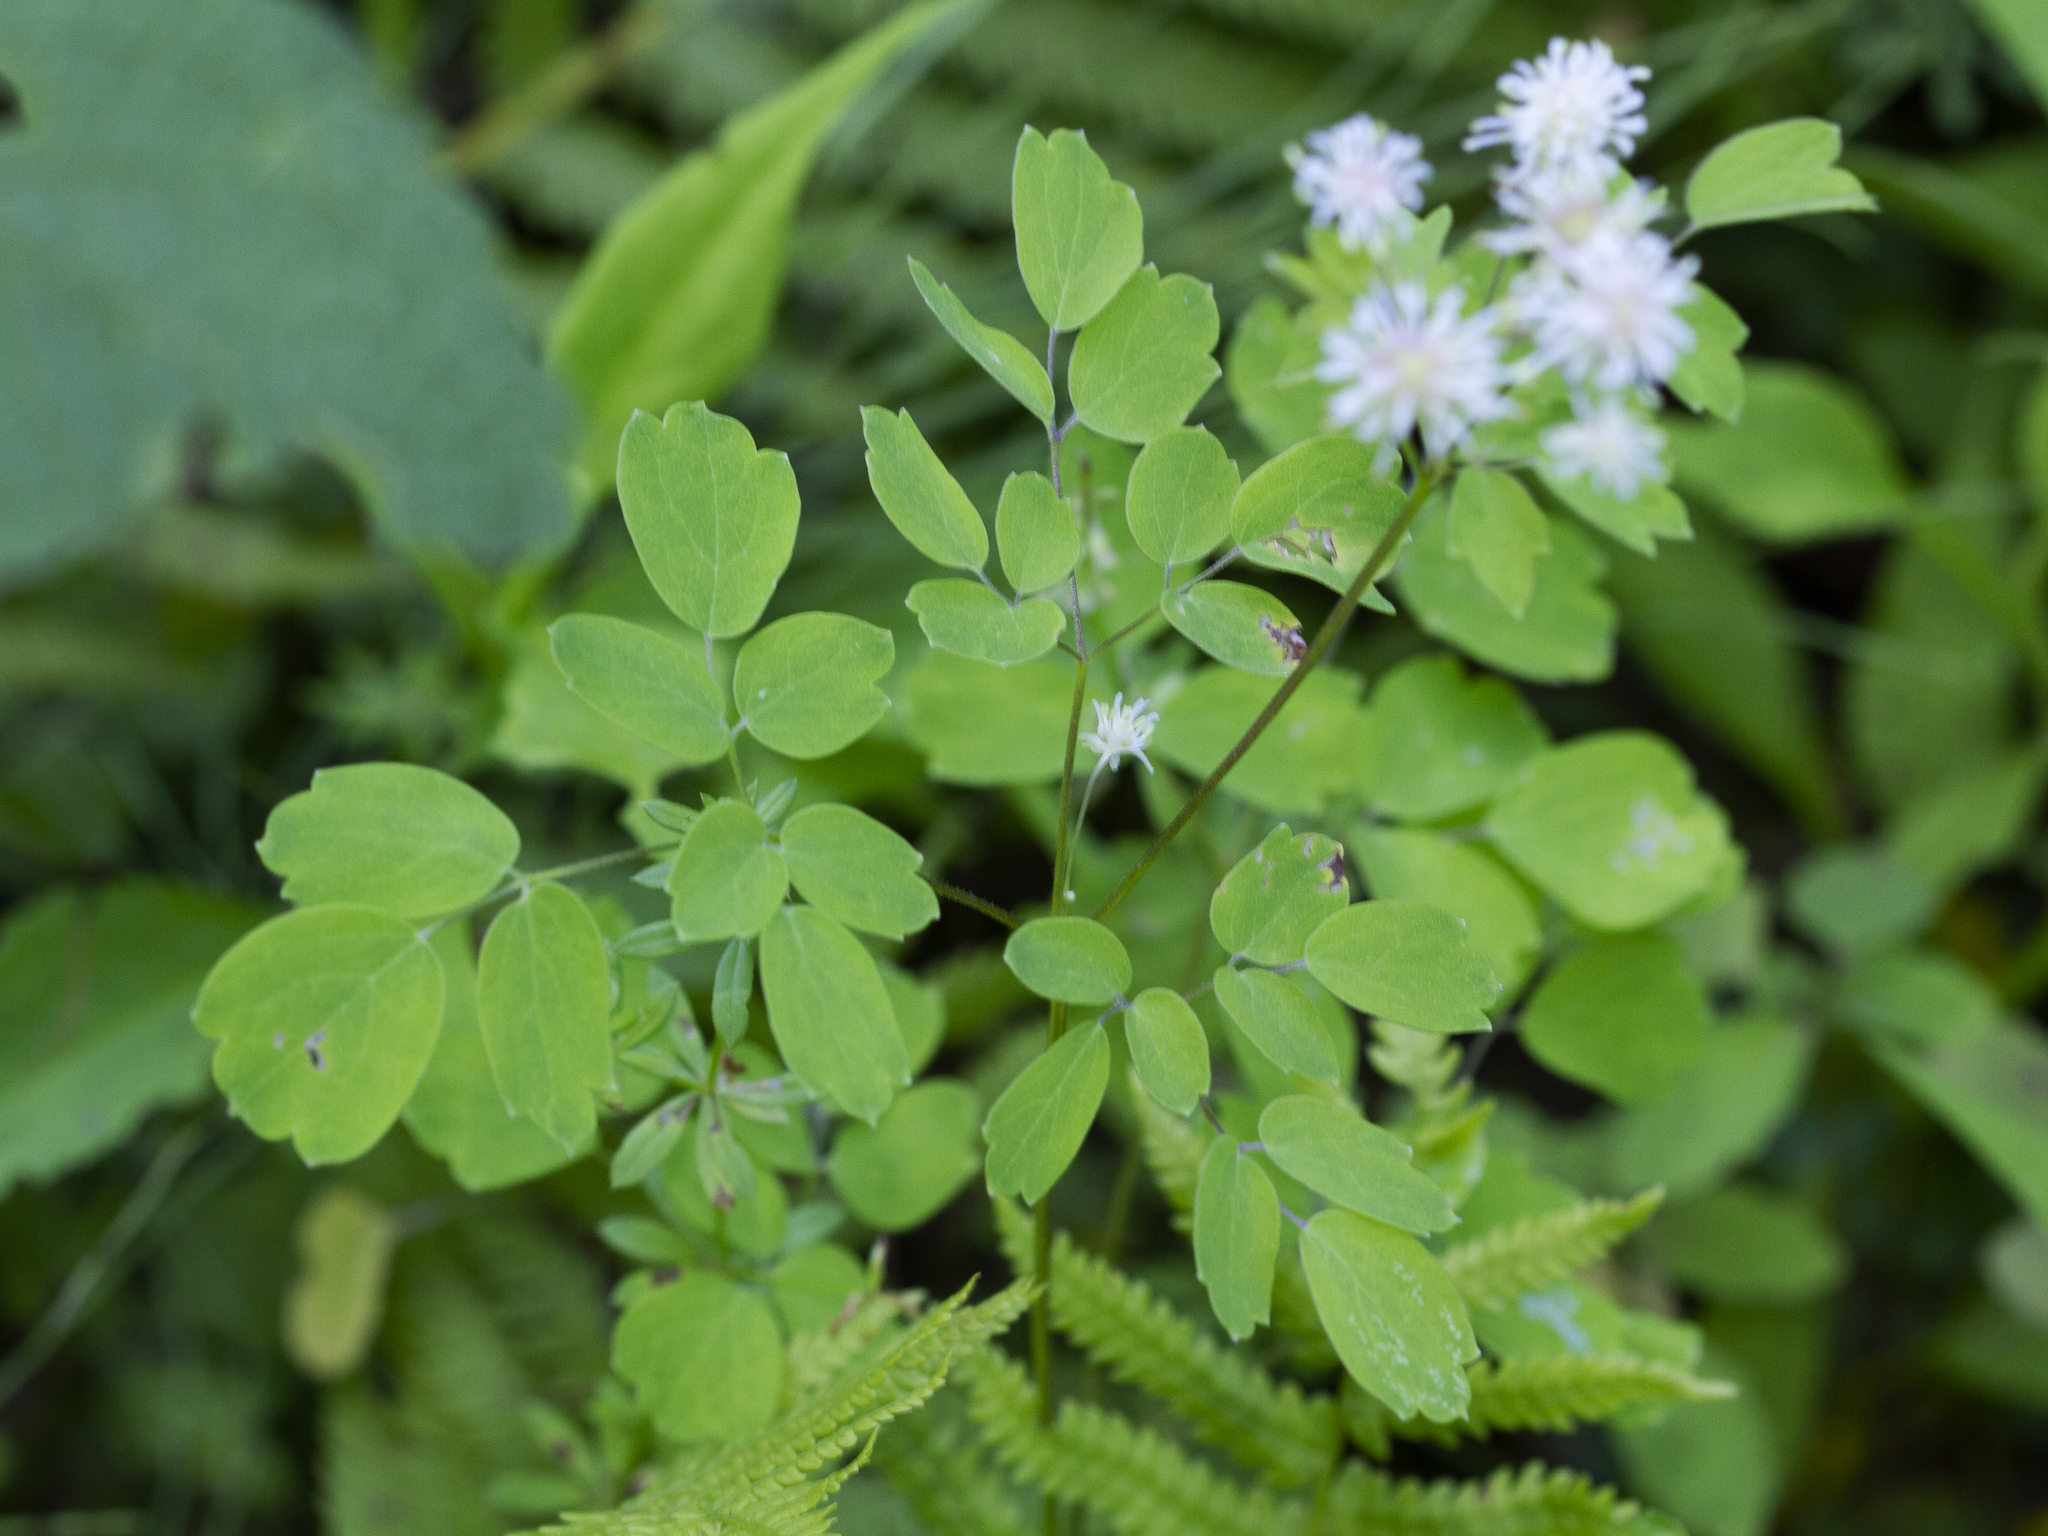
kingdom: Plantae
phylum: Tracheophyta
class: Magnoliopsida
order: Ranunculales
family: Ranunculaceae
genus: Thalictrum
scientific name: Thalictrum pubescens
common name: King-of-the-meadow
